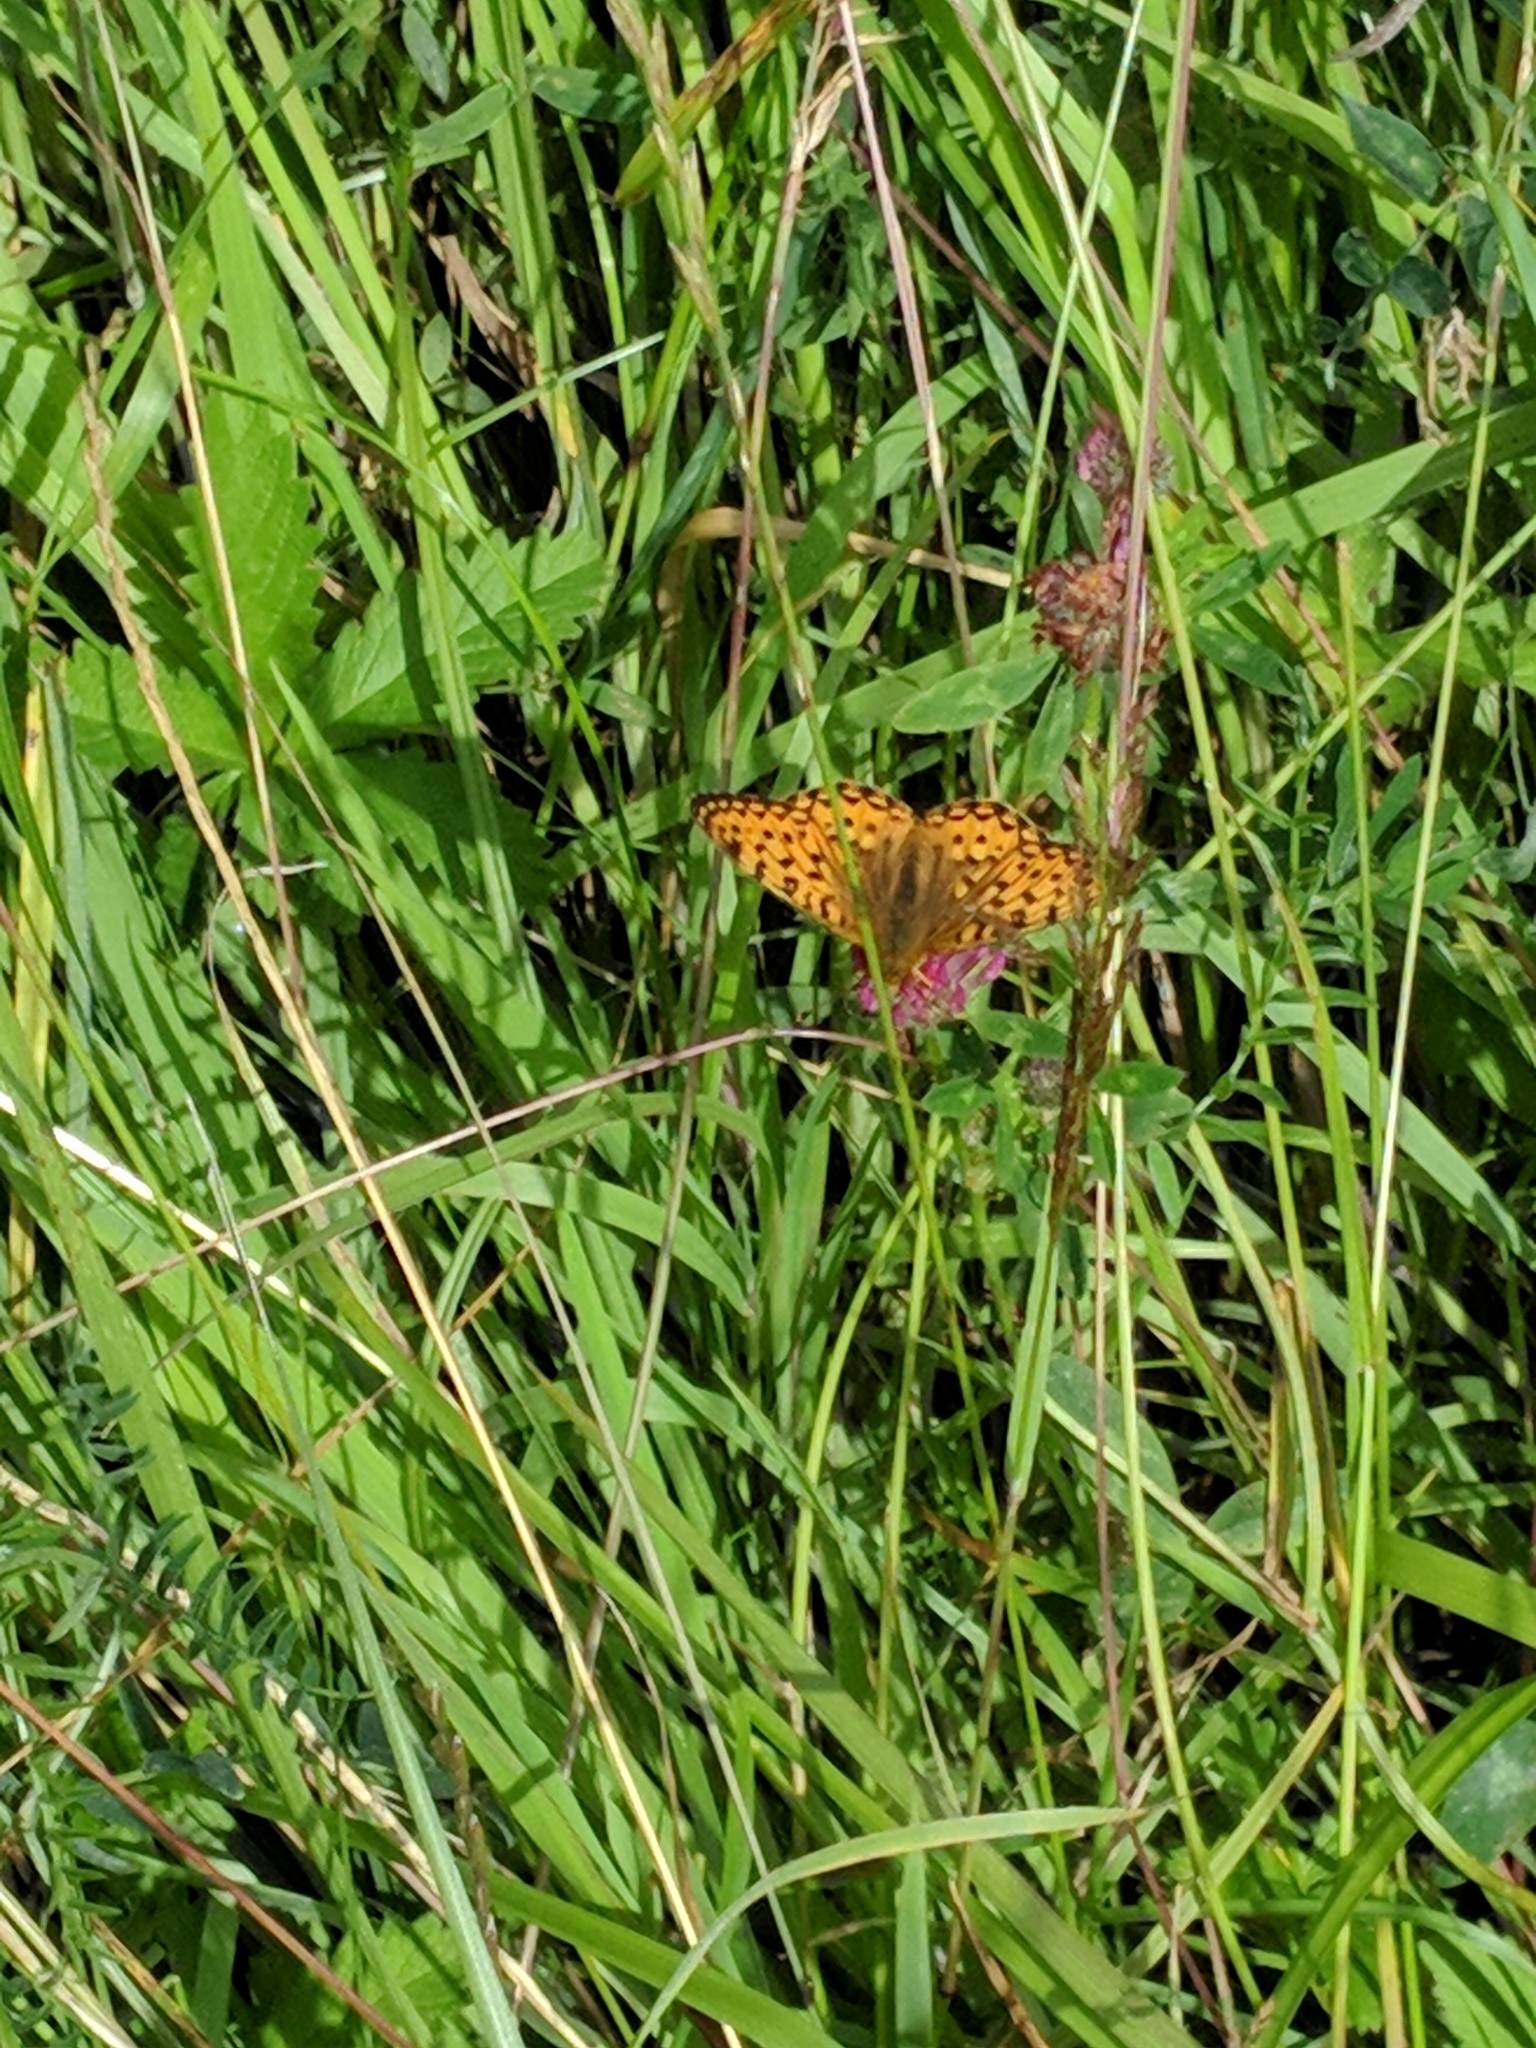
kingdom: Animalia
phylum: Arthropoda
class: Insecta
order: Lepidoptera
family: Nymphalidae
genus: Speyeria
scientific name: Speyeria aglaja
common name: Dark green fritillary
